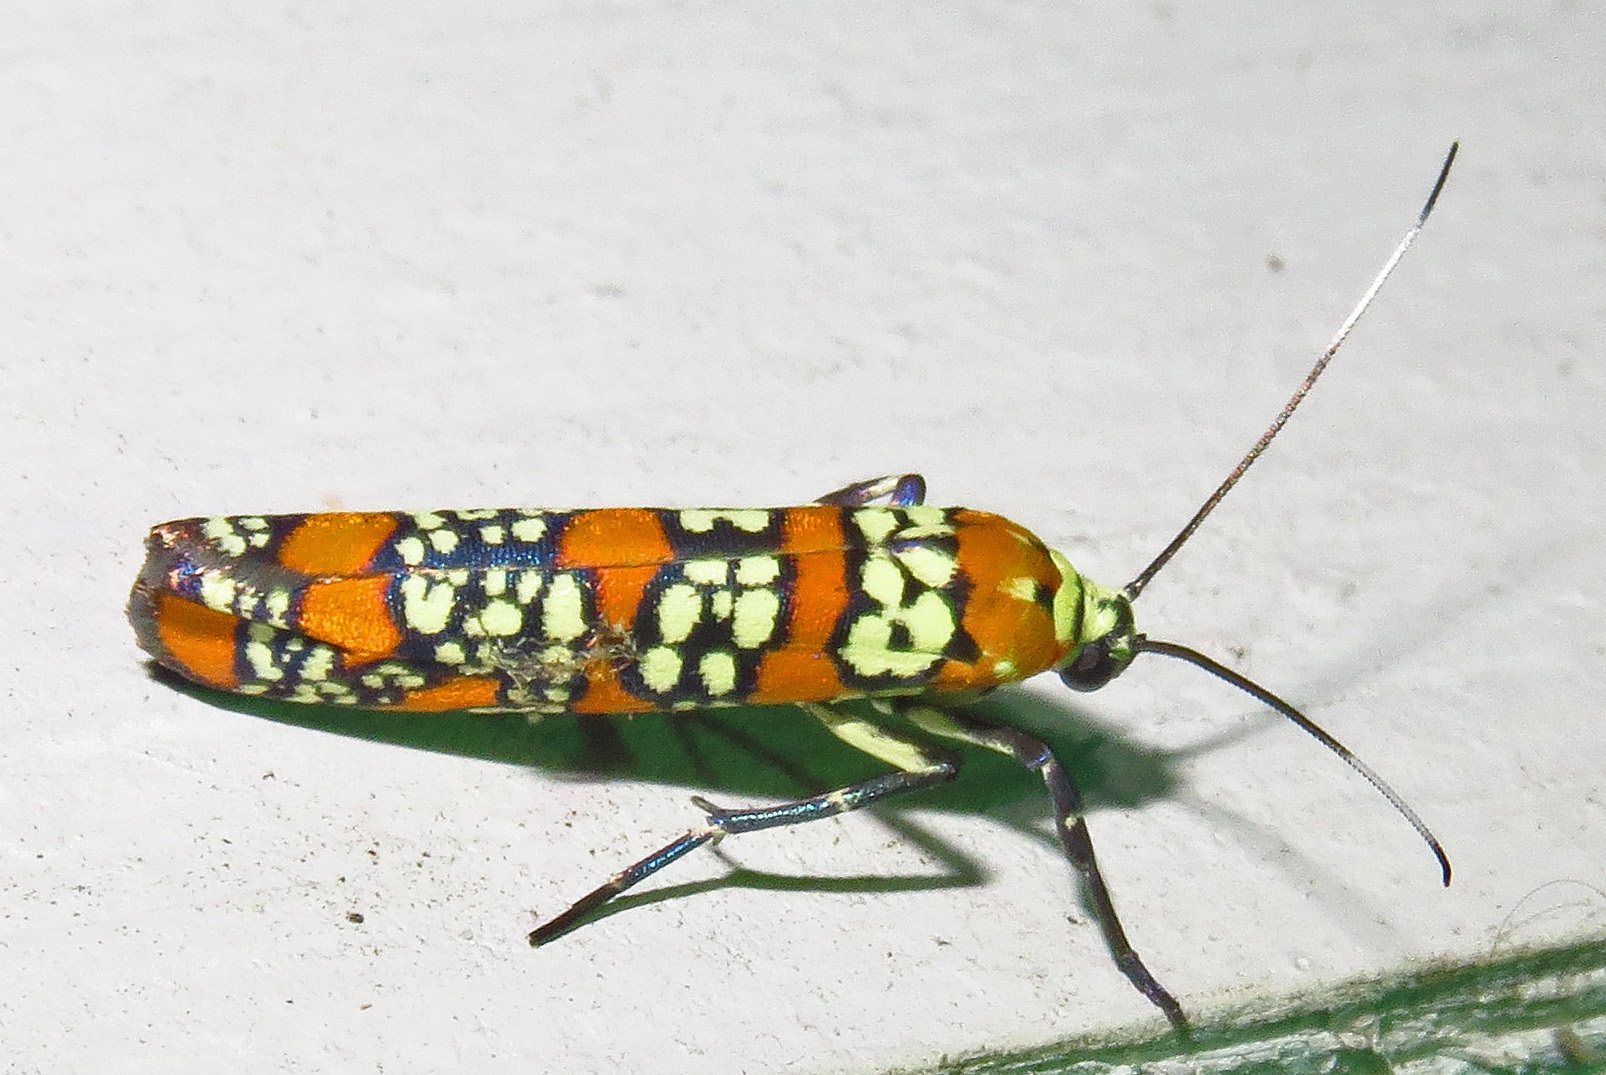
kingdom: Animalia
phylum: Arthropoda
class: Insecta
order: Lepidoptera
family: Attevidae
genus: Atteva
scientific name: Atteva punctella
